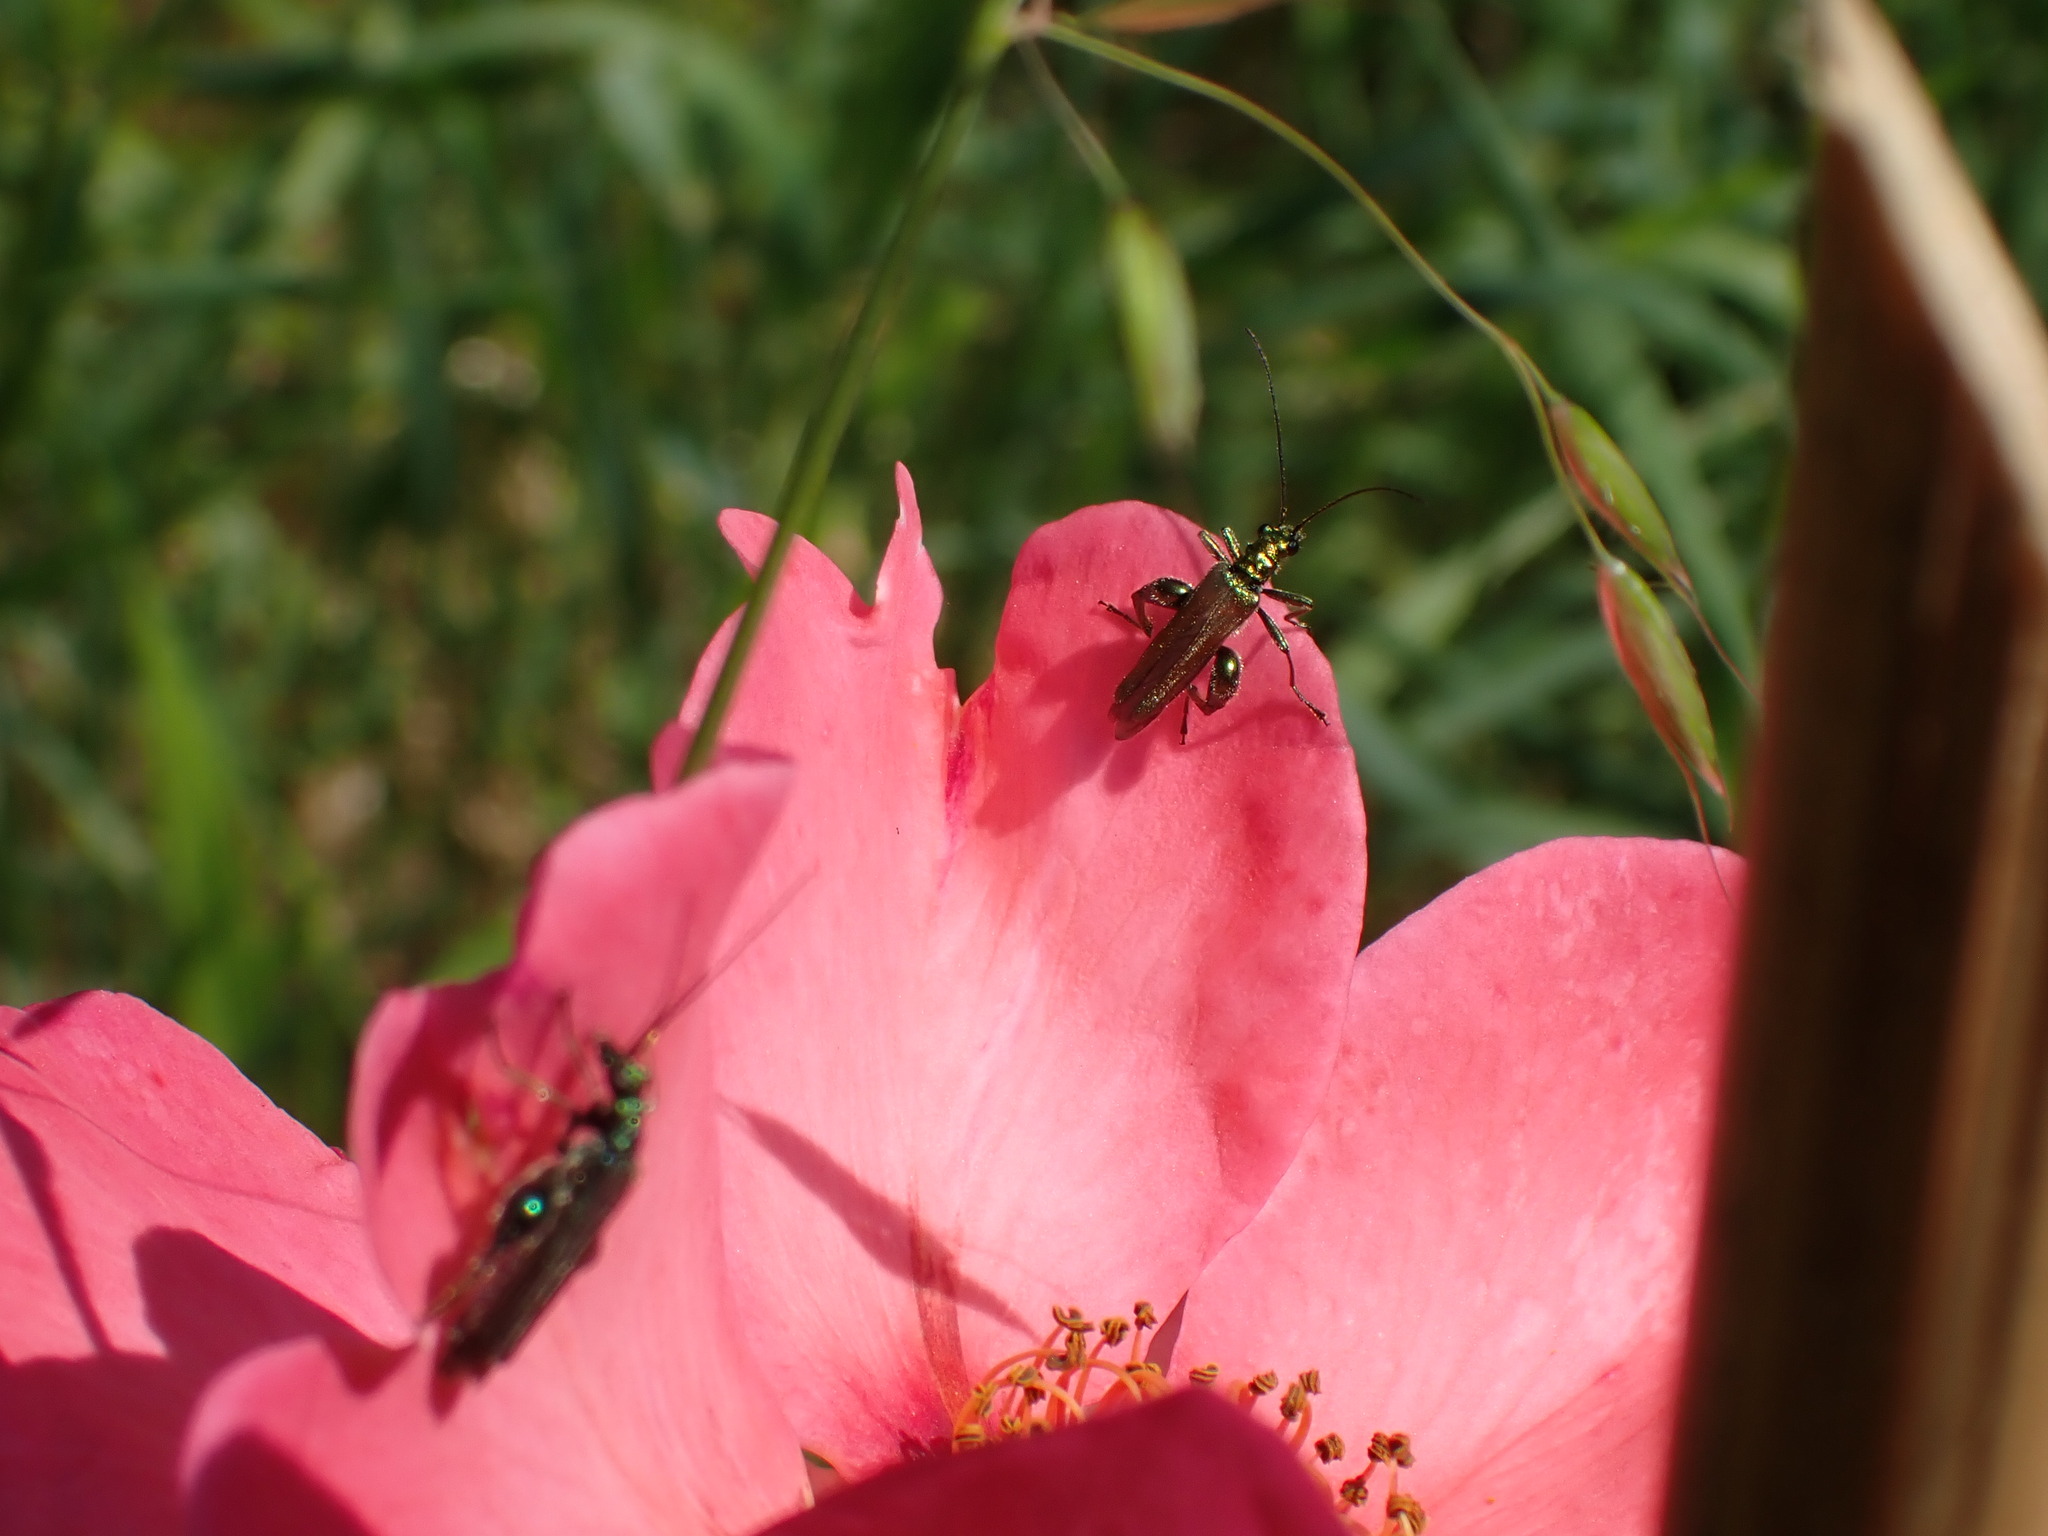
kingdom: Animalia
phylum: Arthropoda
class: Insecta
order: Coleoptera
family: Oedemeridae
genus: Oedemera
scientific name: Oedemera nobilis
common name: Swollen-thighed beetle
